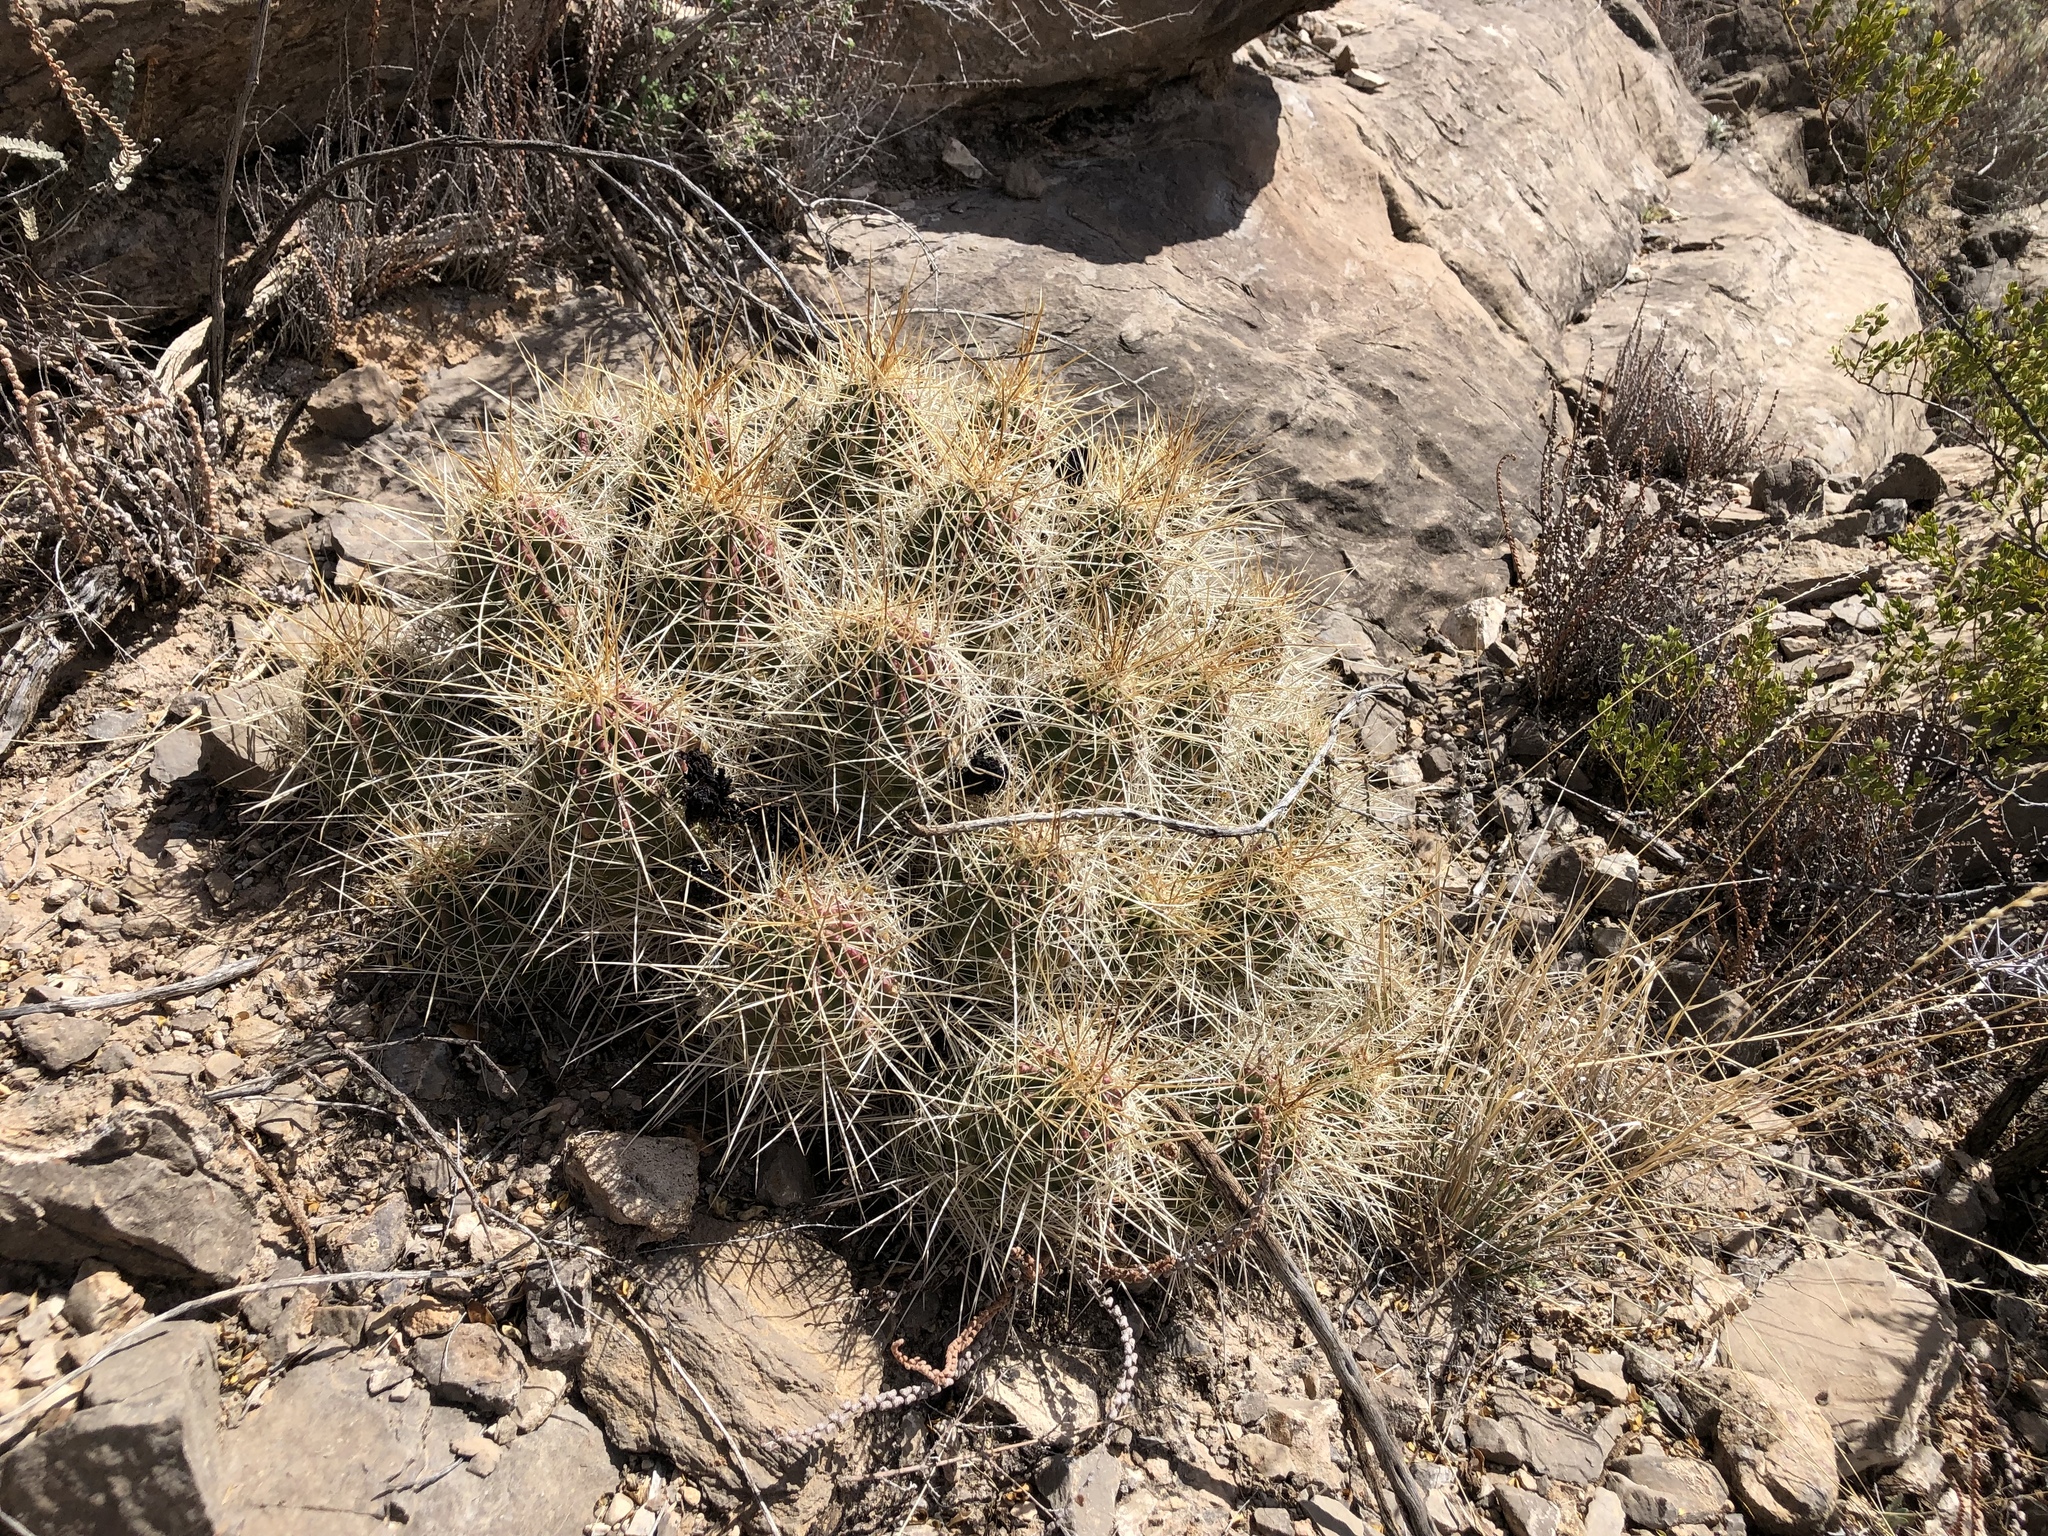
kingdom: Plantae
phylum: Tracheophyta
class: Magnoliopsida
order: Caryophyllales
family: Cactaceae
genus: Echinocereus
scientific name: Echinocereus stramineus
